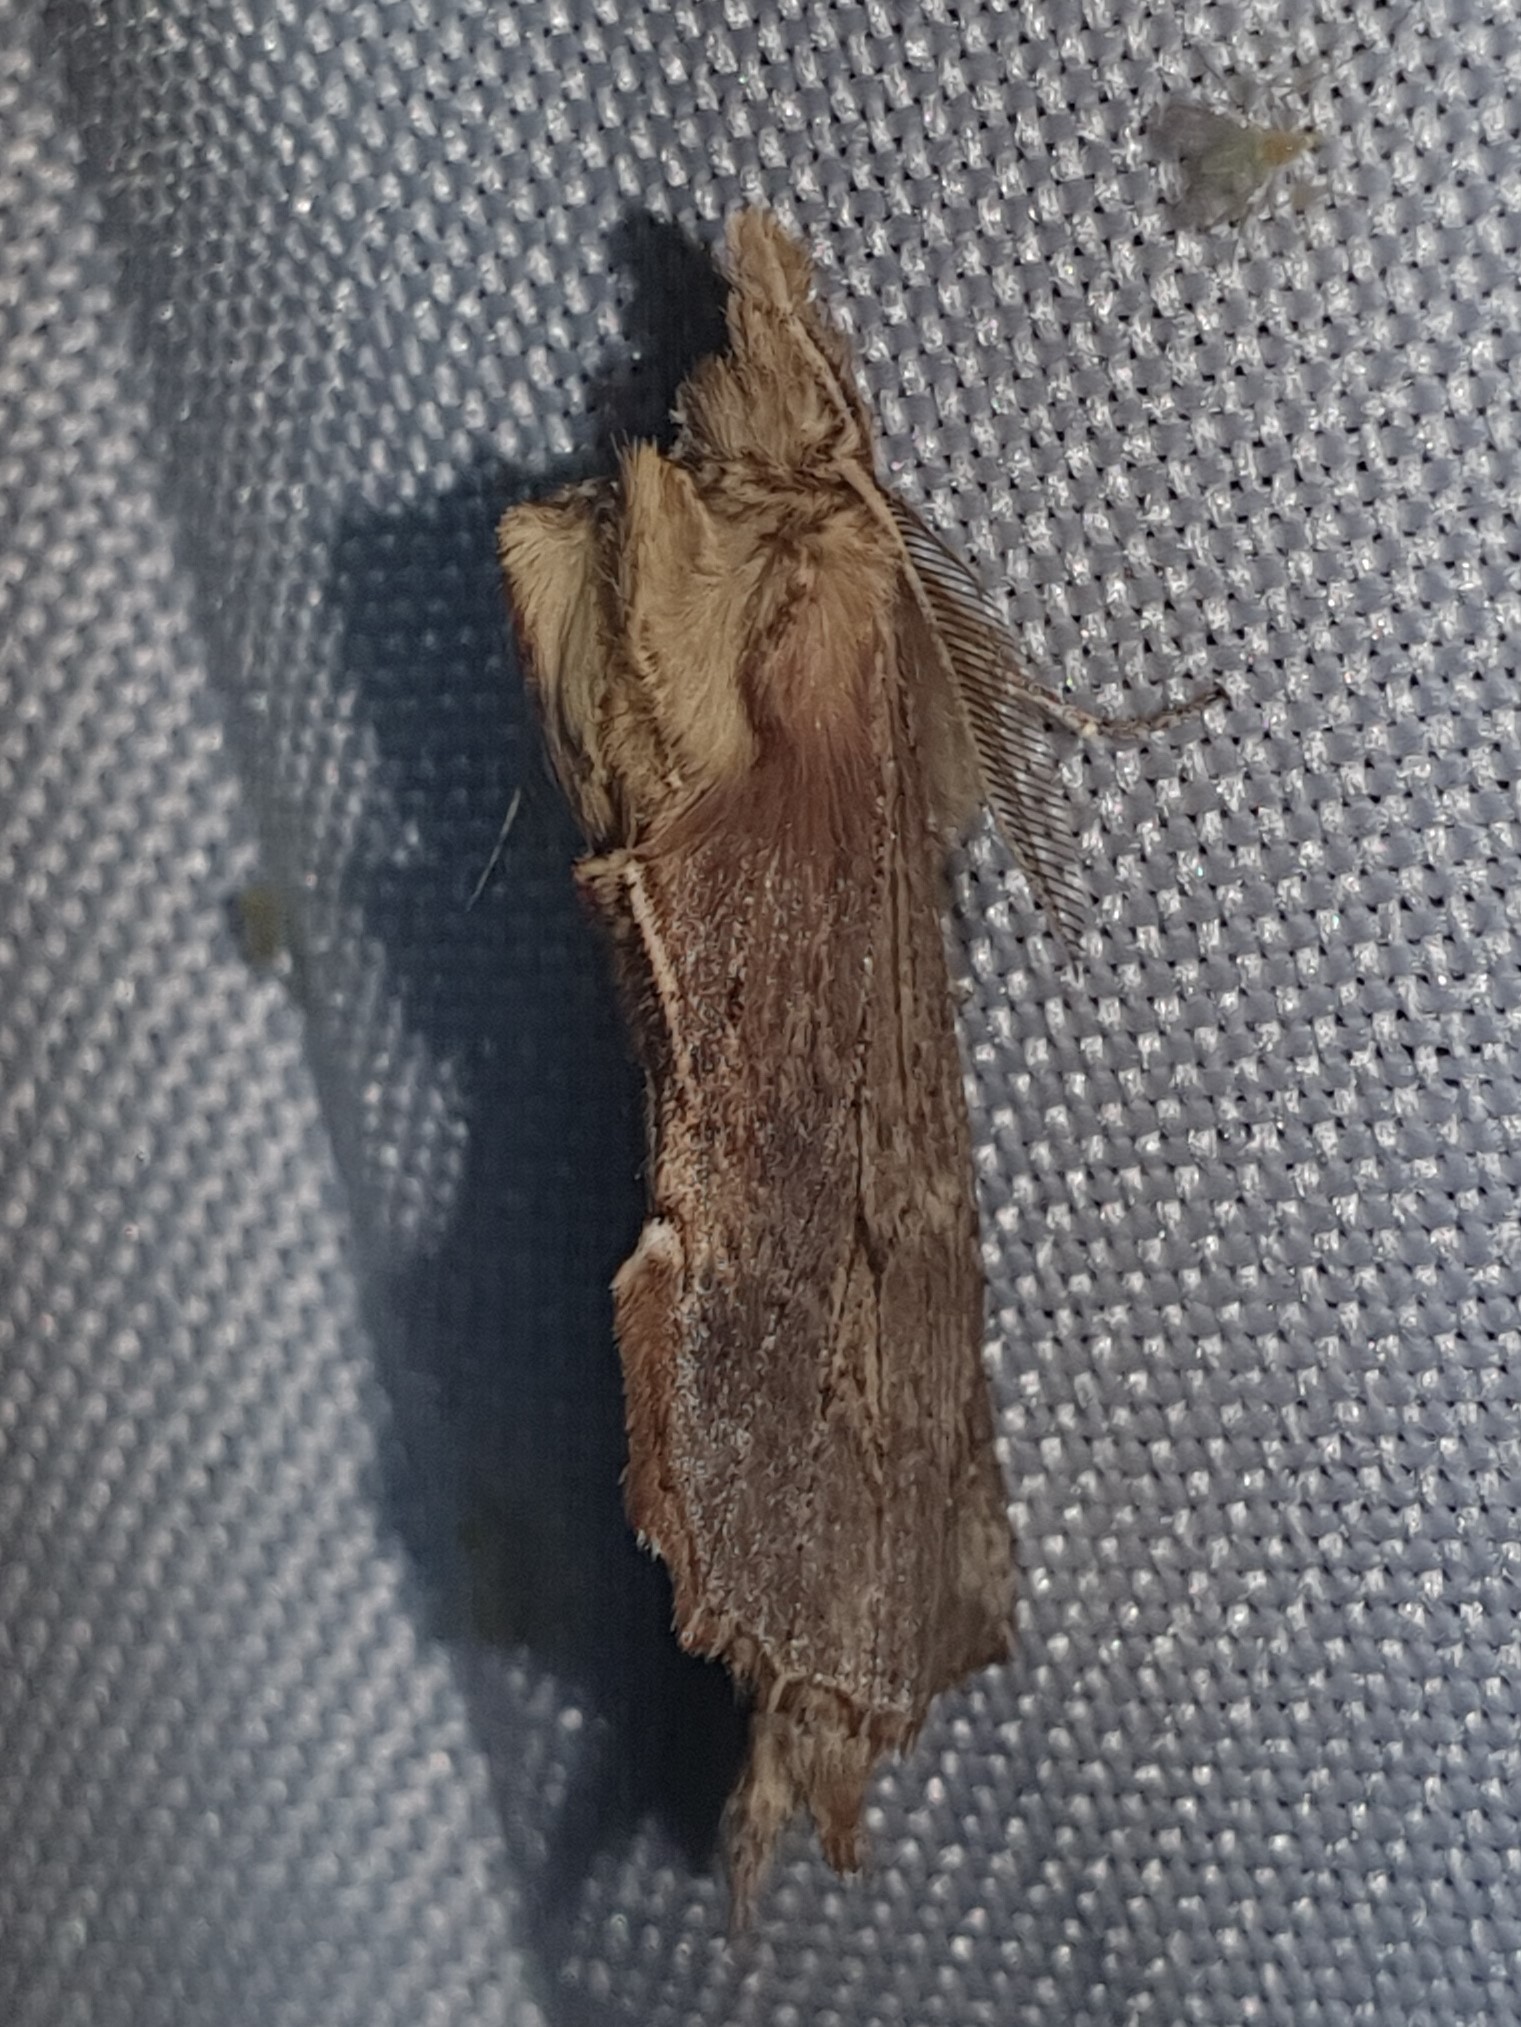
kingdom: Animalia
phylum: Arthropoda
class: Insecta
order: Lepidoptera
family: Notodontidae
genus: Pterostoma
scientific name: Pterostoma palpina
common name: Pale prominent
